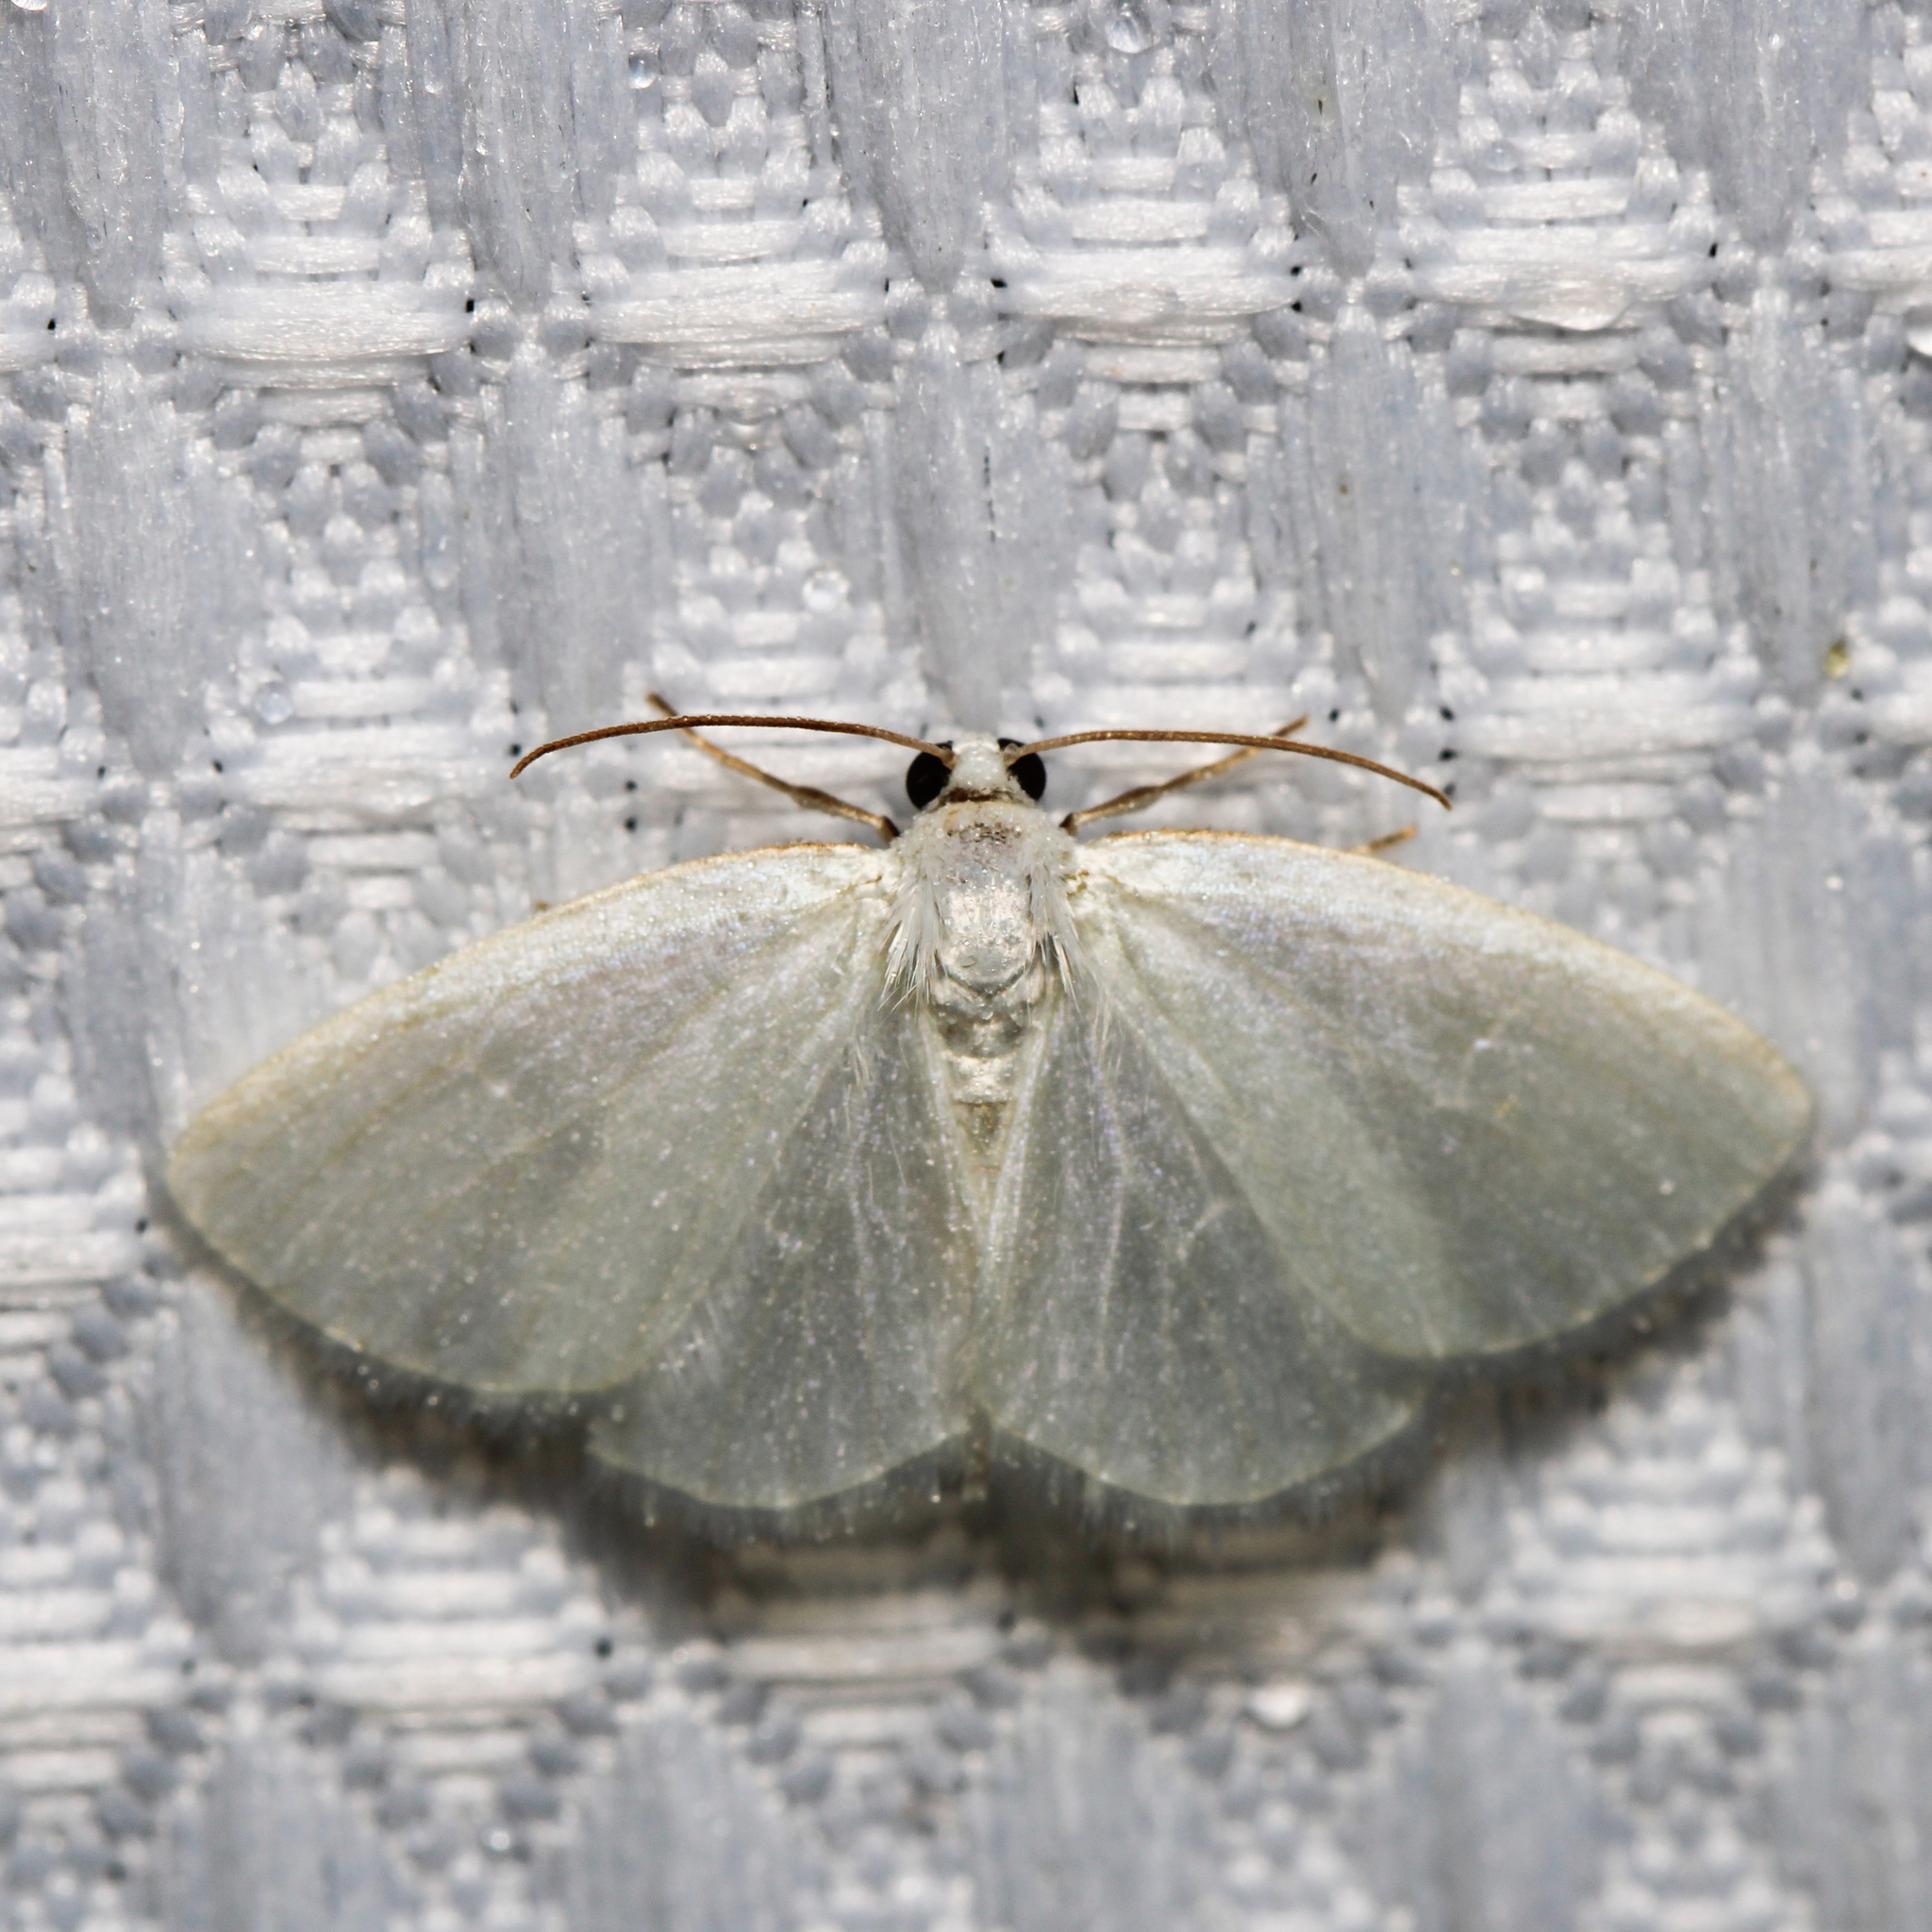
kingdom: Animalia
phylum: Arthropoda
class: Insecta
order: Lepidoptera
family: Geometridae
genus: Lomographa
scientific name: Lomographa vestaliata
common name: White spring moth
